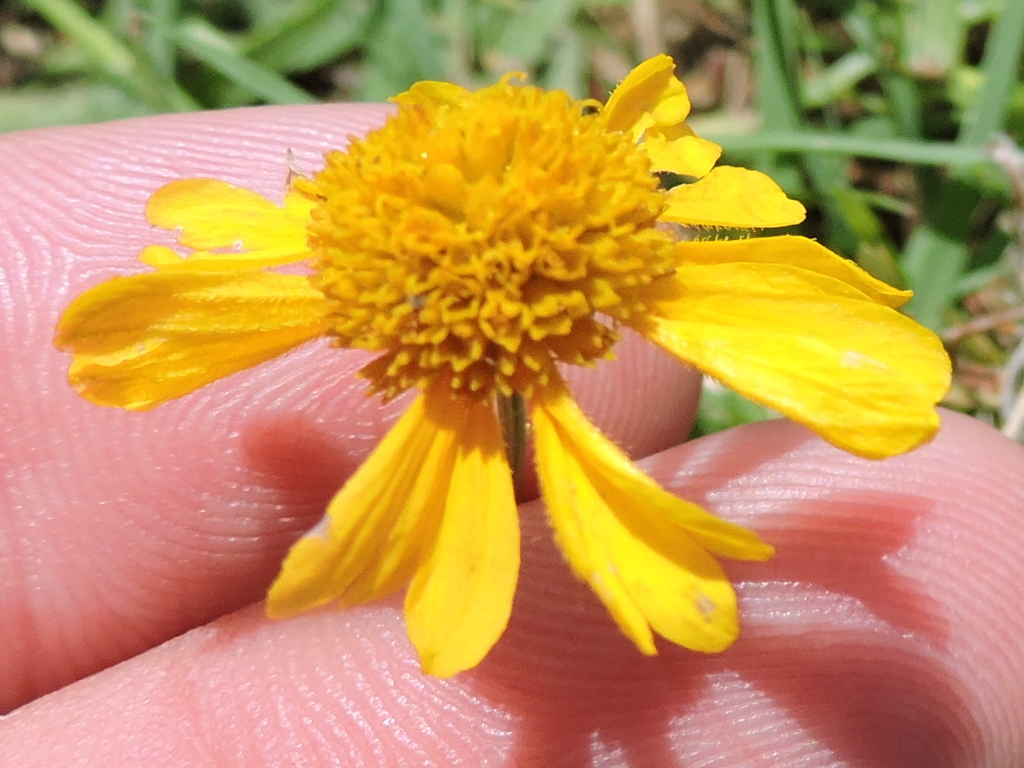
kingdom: Plantae
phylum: Tracheophyta
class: Magnoliopsida
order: Asterales
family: Asteraceae
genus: Helenium
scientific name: Helenium amarum
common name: Bitter sneezeweed
